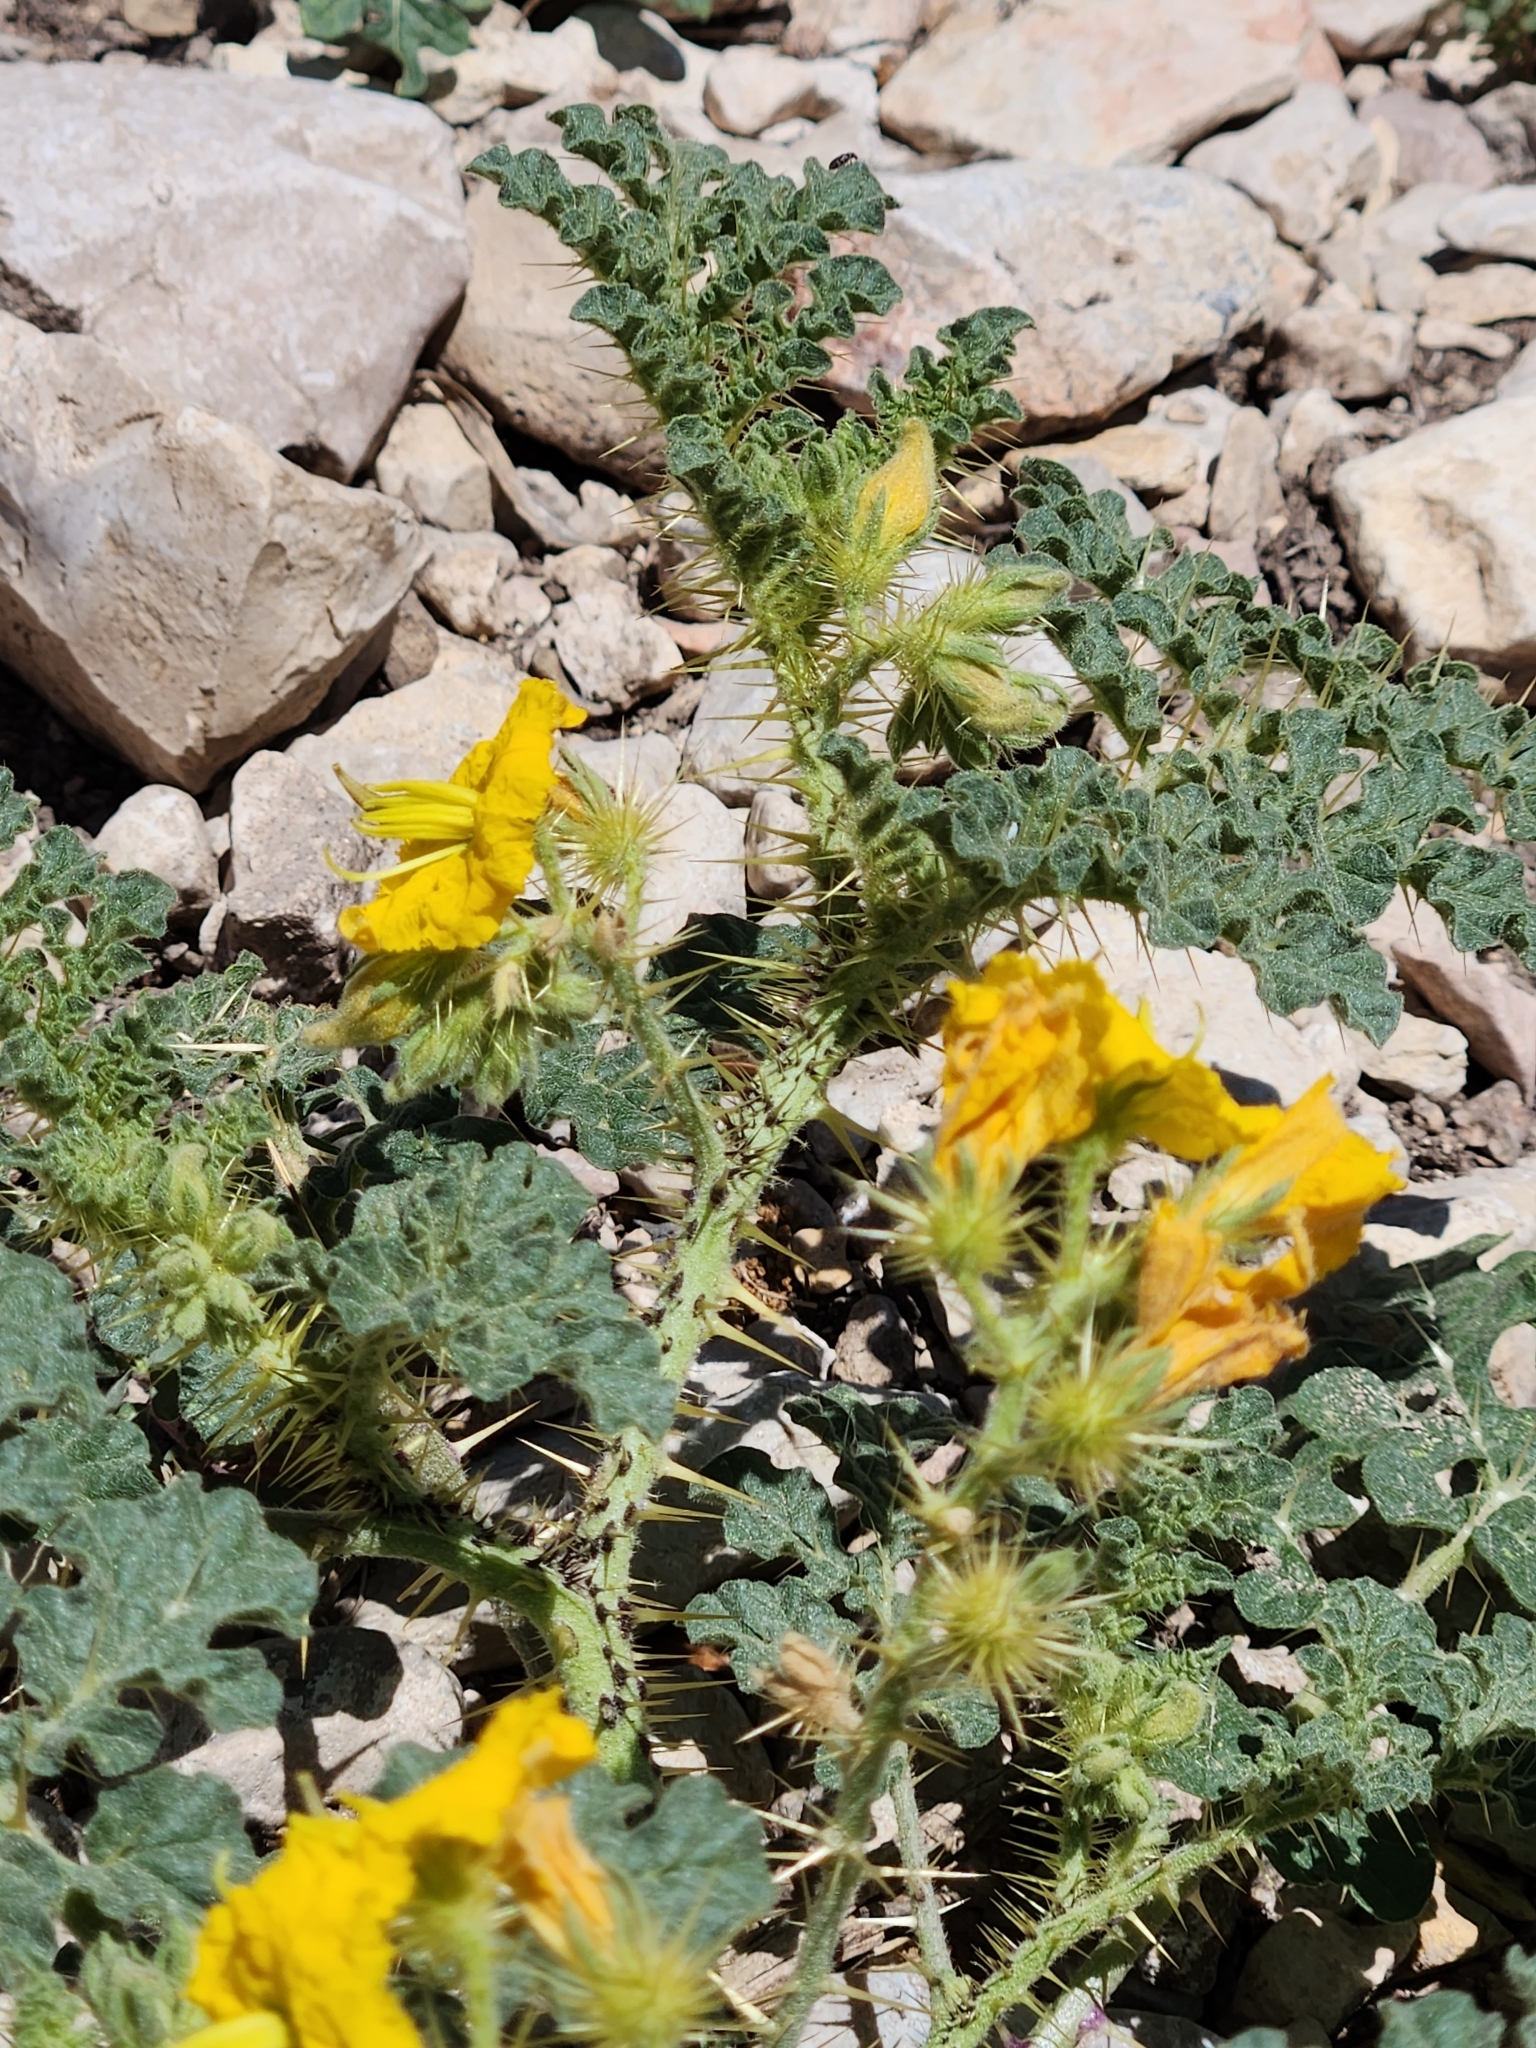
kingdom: Plantae
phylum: Tracheophyta
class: Magnoliopsida
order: Solanales
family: Solanaceae
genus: Solanum
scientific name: Solanum angustifolium
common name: Buffalobur nightshade
